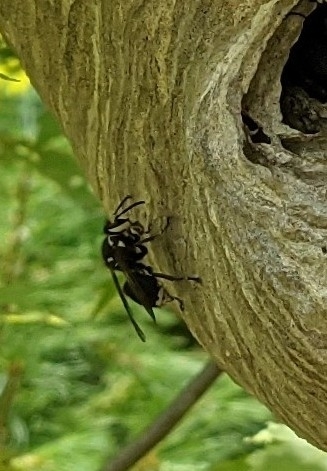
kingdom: Animalia
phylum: Arthropoda
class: Insecta
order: Hymenoptera
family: Vespidae
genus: Dolichovespula
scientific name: Dolichovespula maculata
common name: Bald-faced hornet
